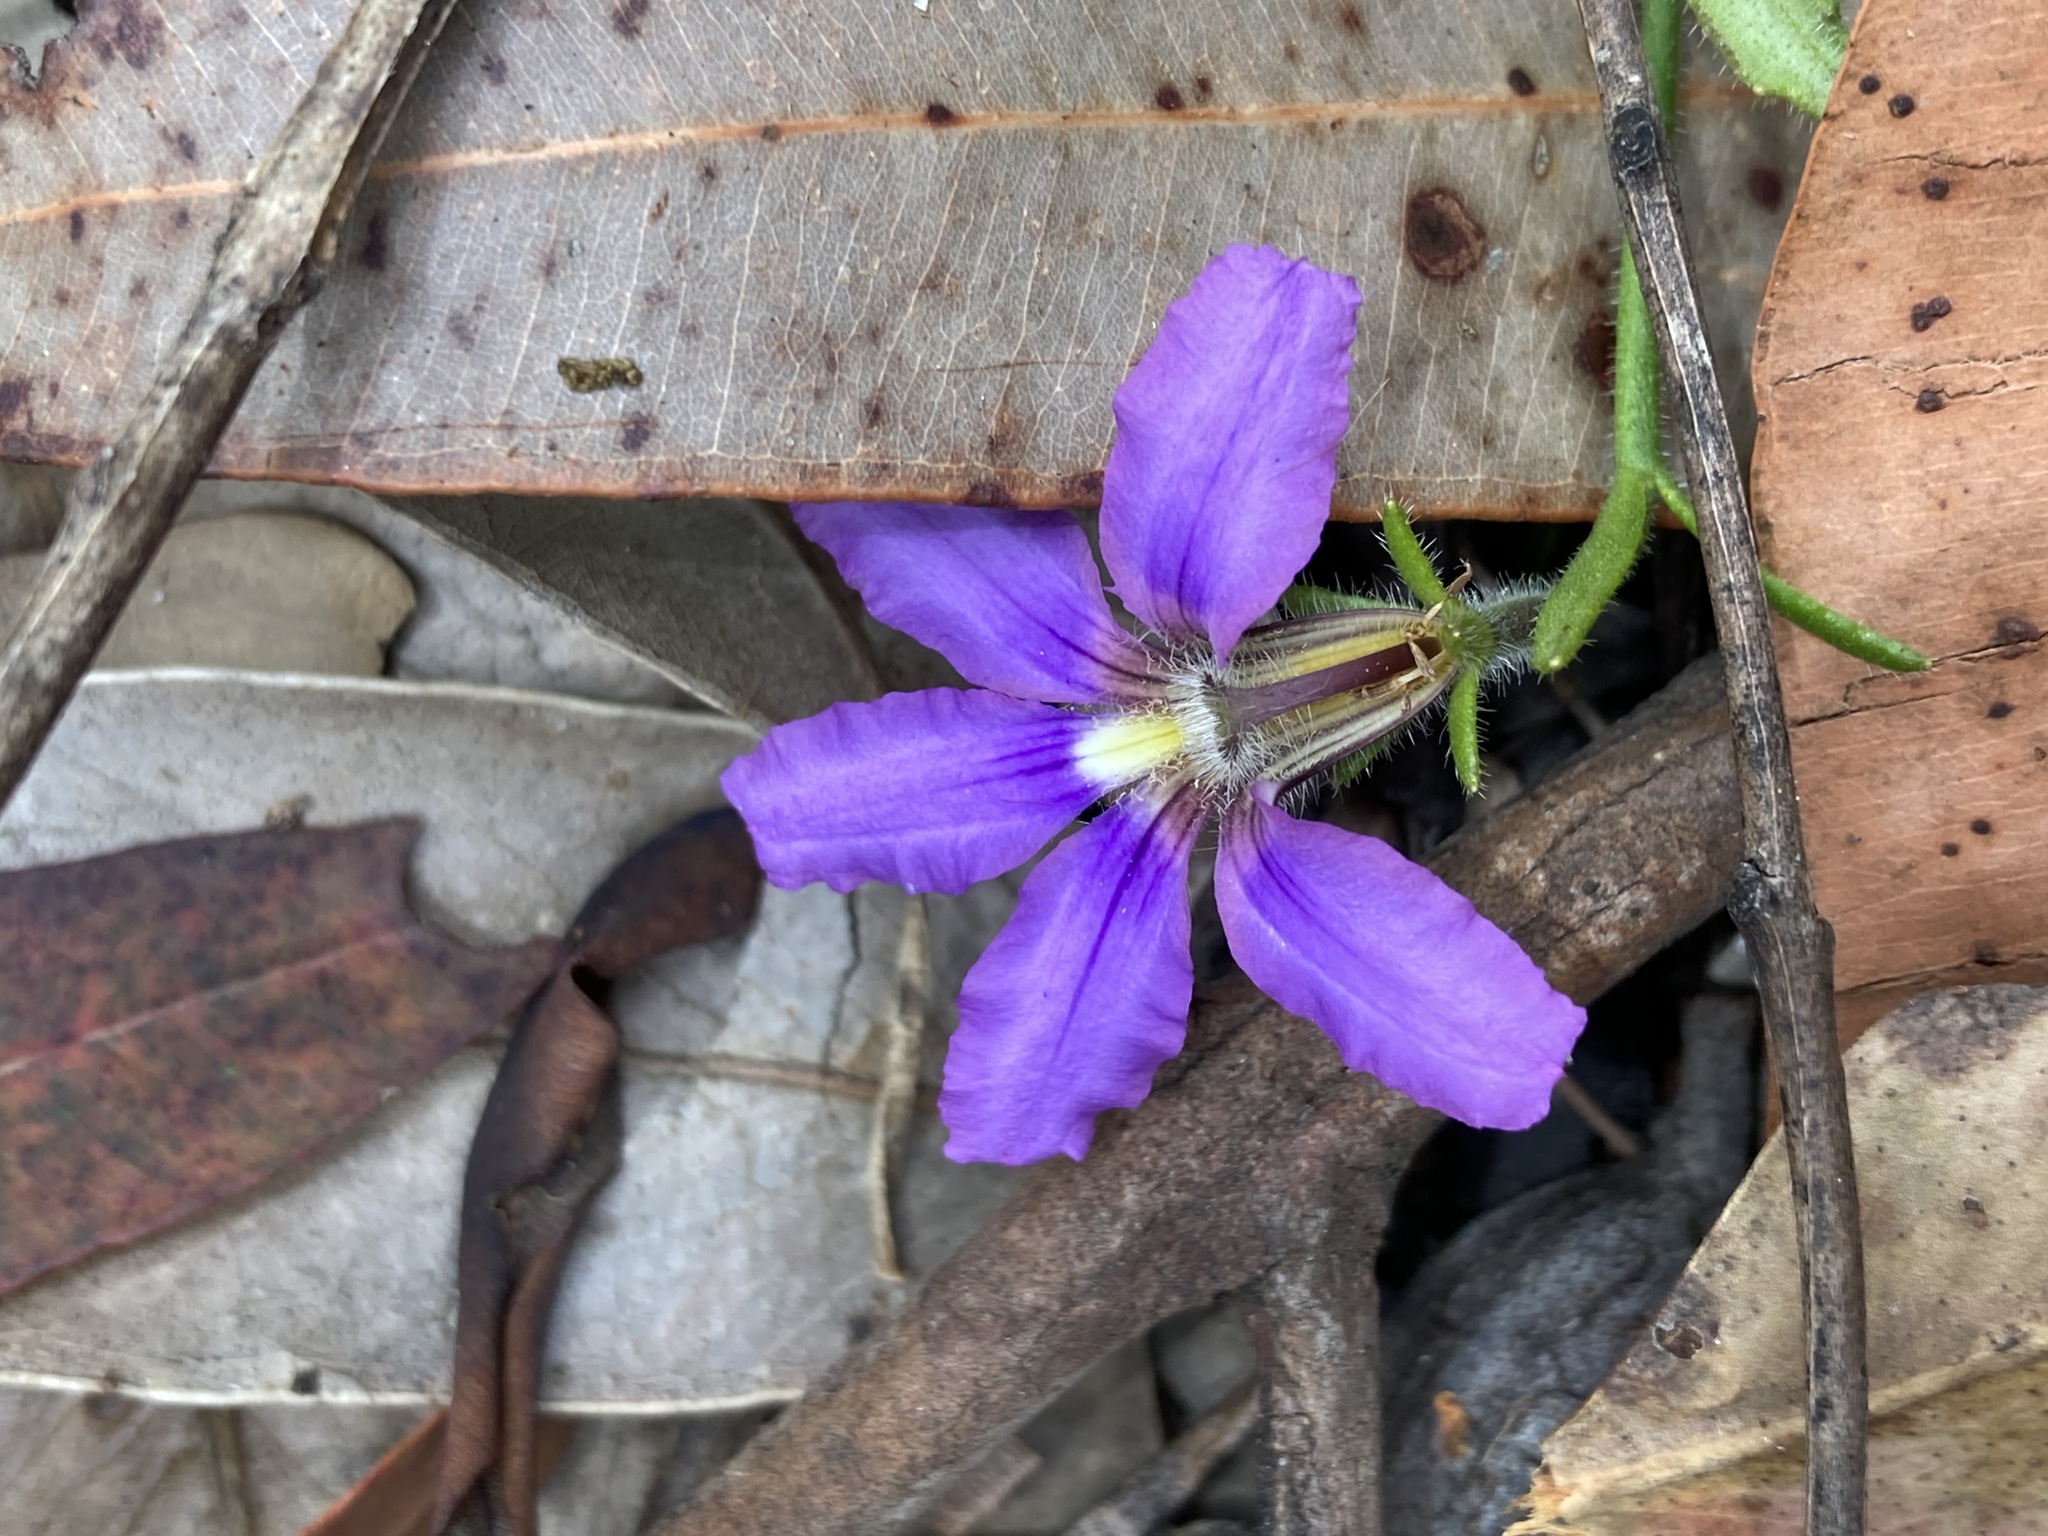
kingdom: Plantae
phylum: Tracheophyta
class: Magnoliopsida
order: Asterales
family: Goodeniaceae
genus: Scaevola
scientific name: Scaevola ramosissima
